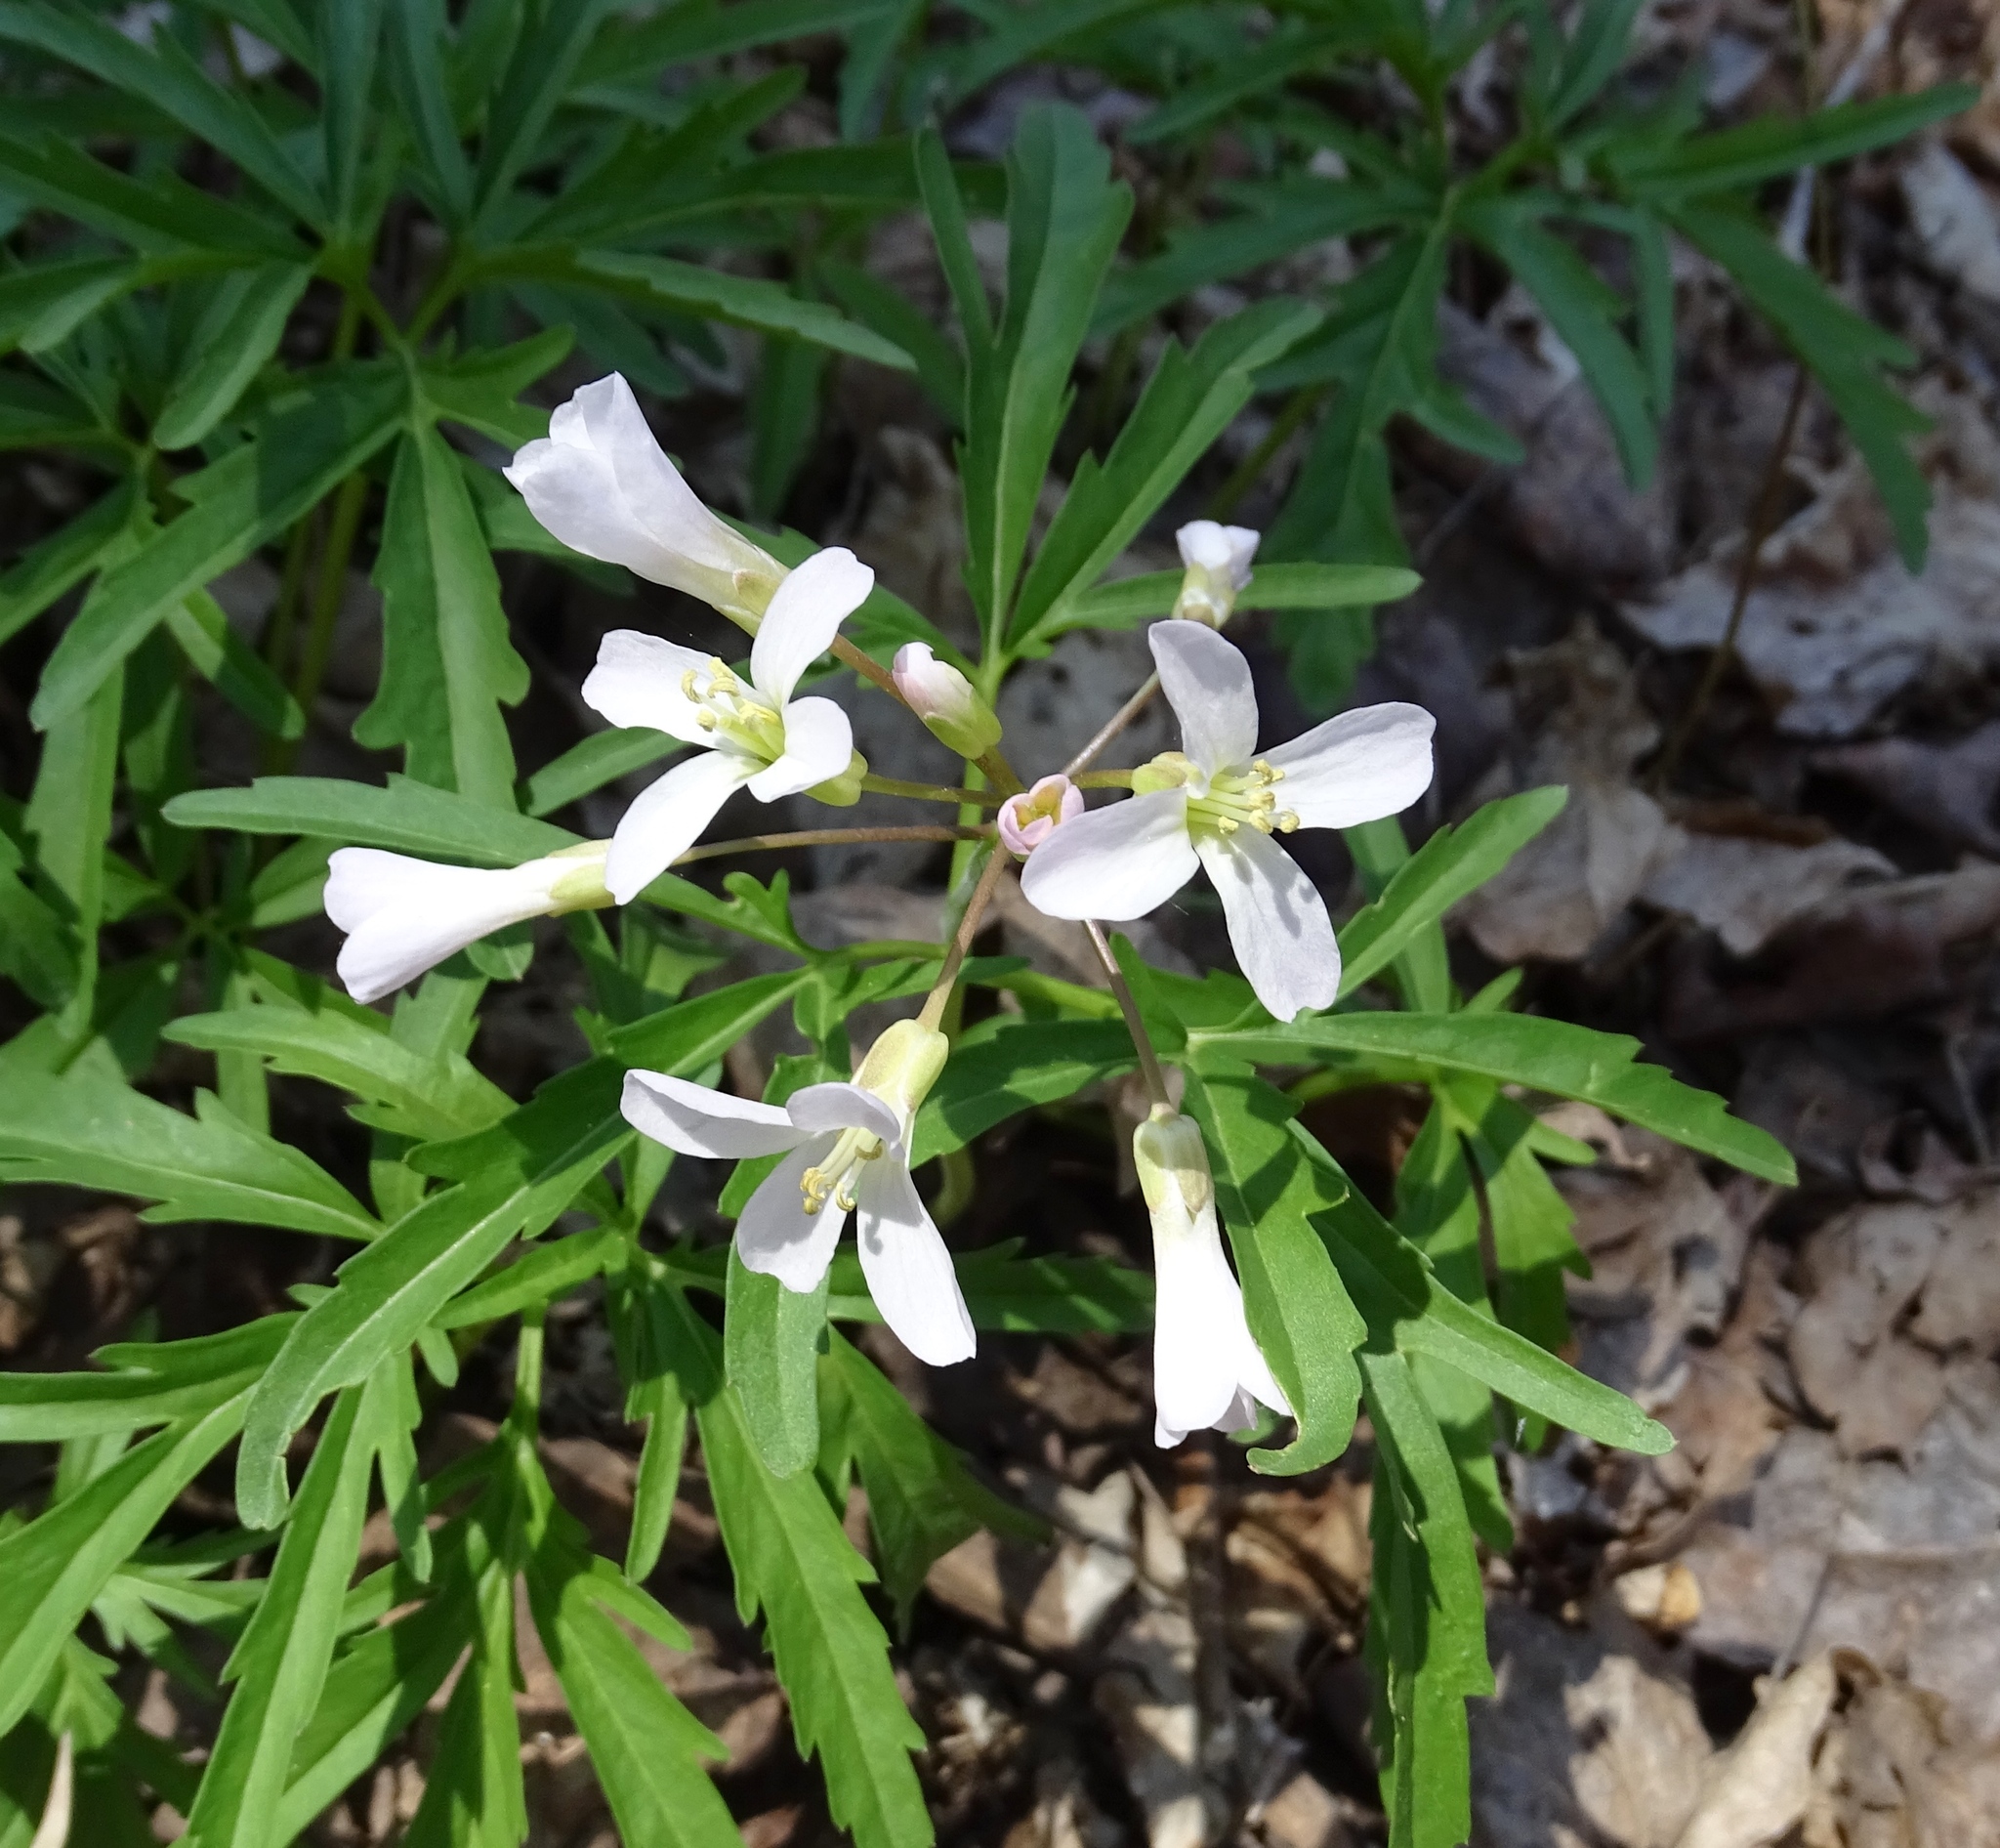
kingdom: Plantae
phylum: Tracheophyta
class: Magnoliopsida
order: Brassicales
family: Brassicaceae
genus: Cardamine
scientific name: Cardamine concatenata
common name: Cut-leaf toothcup
